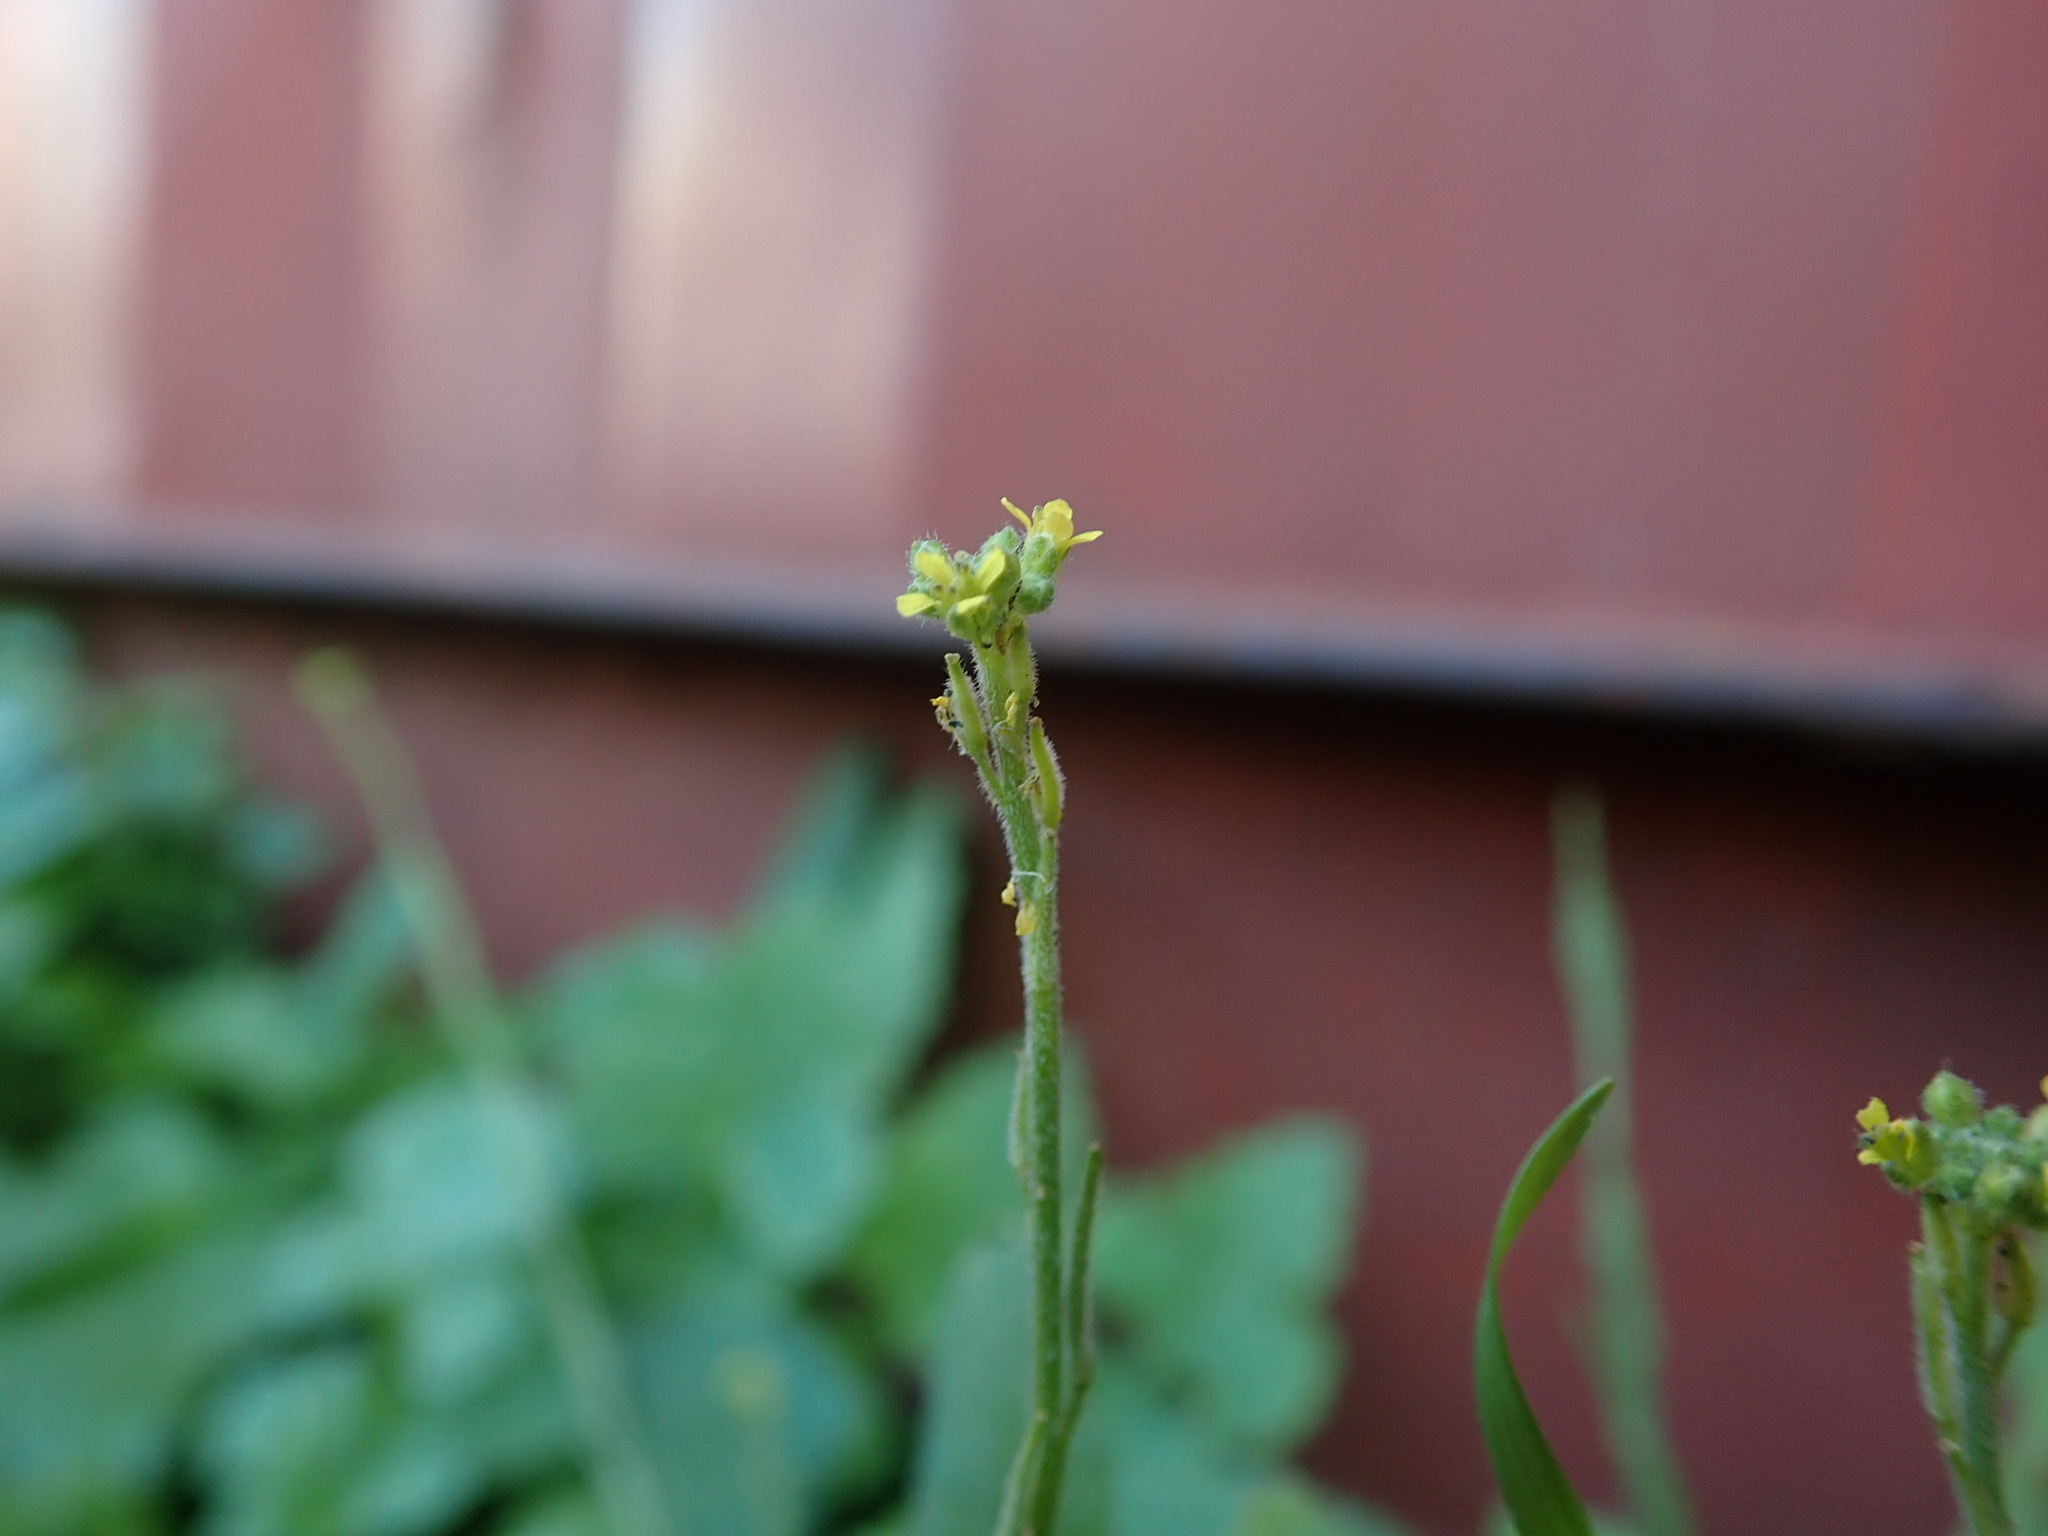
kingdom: Plantae
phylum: Tracheophyta
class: Magnoliopsida
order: Brassicales
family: Brassicaceae
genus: Sisymbrium
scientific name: Sisymbrium officinale
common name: Hedge mustard
